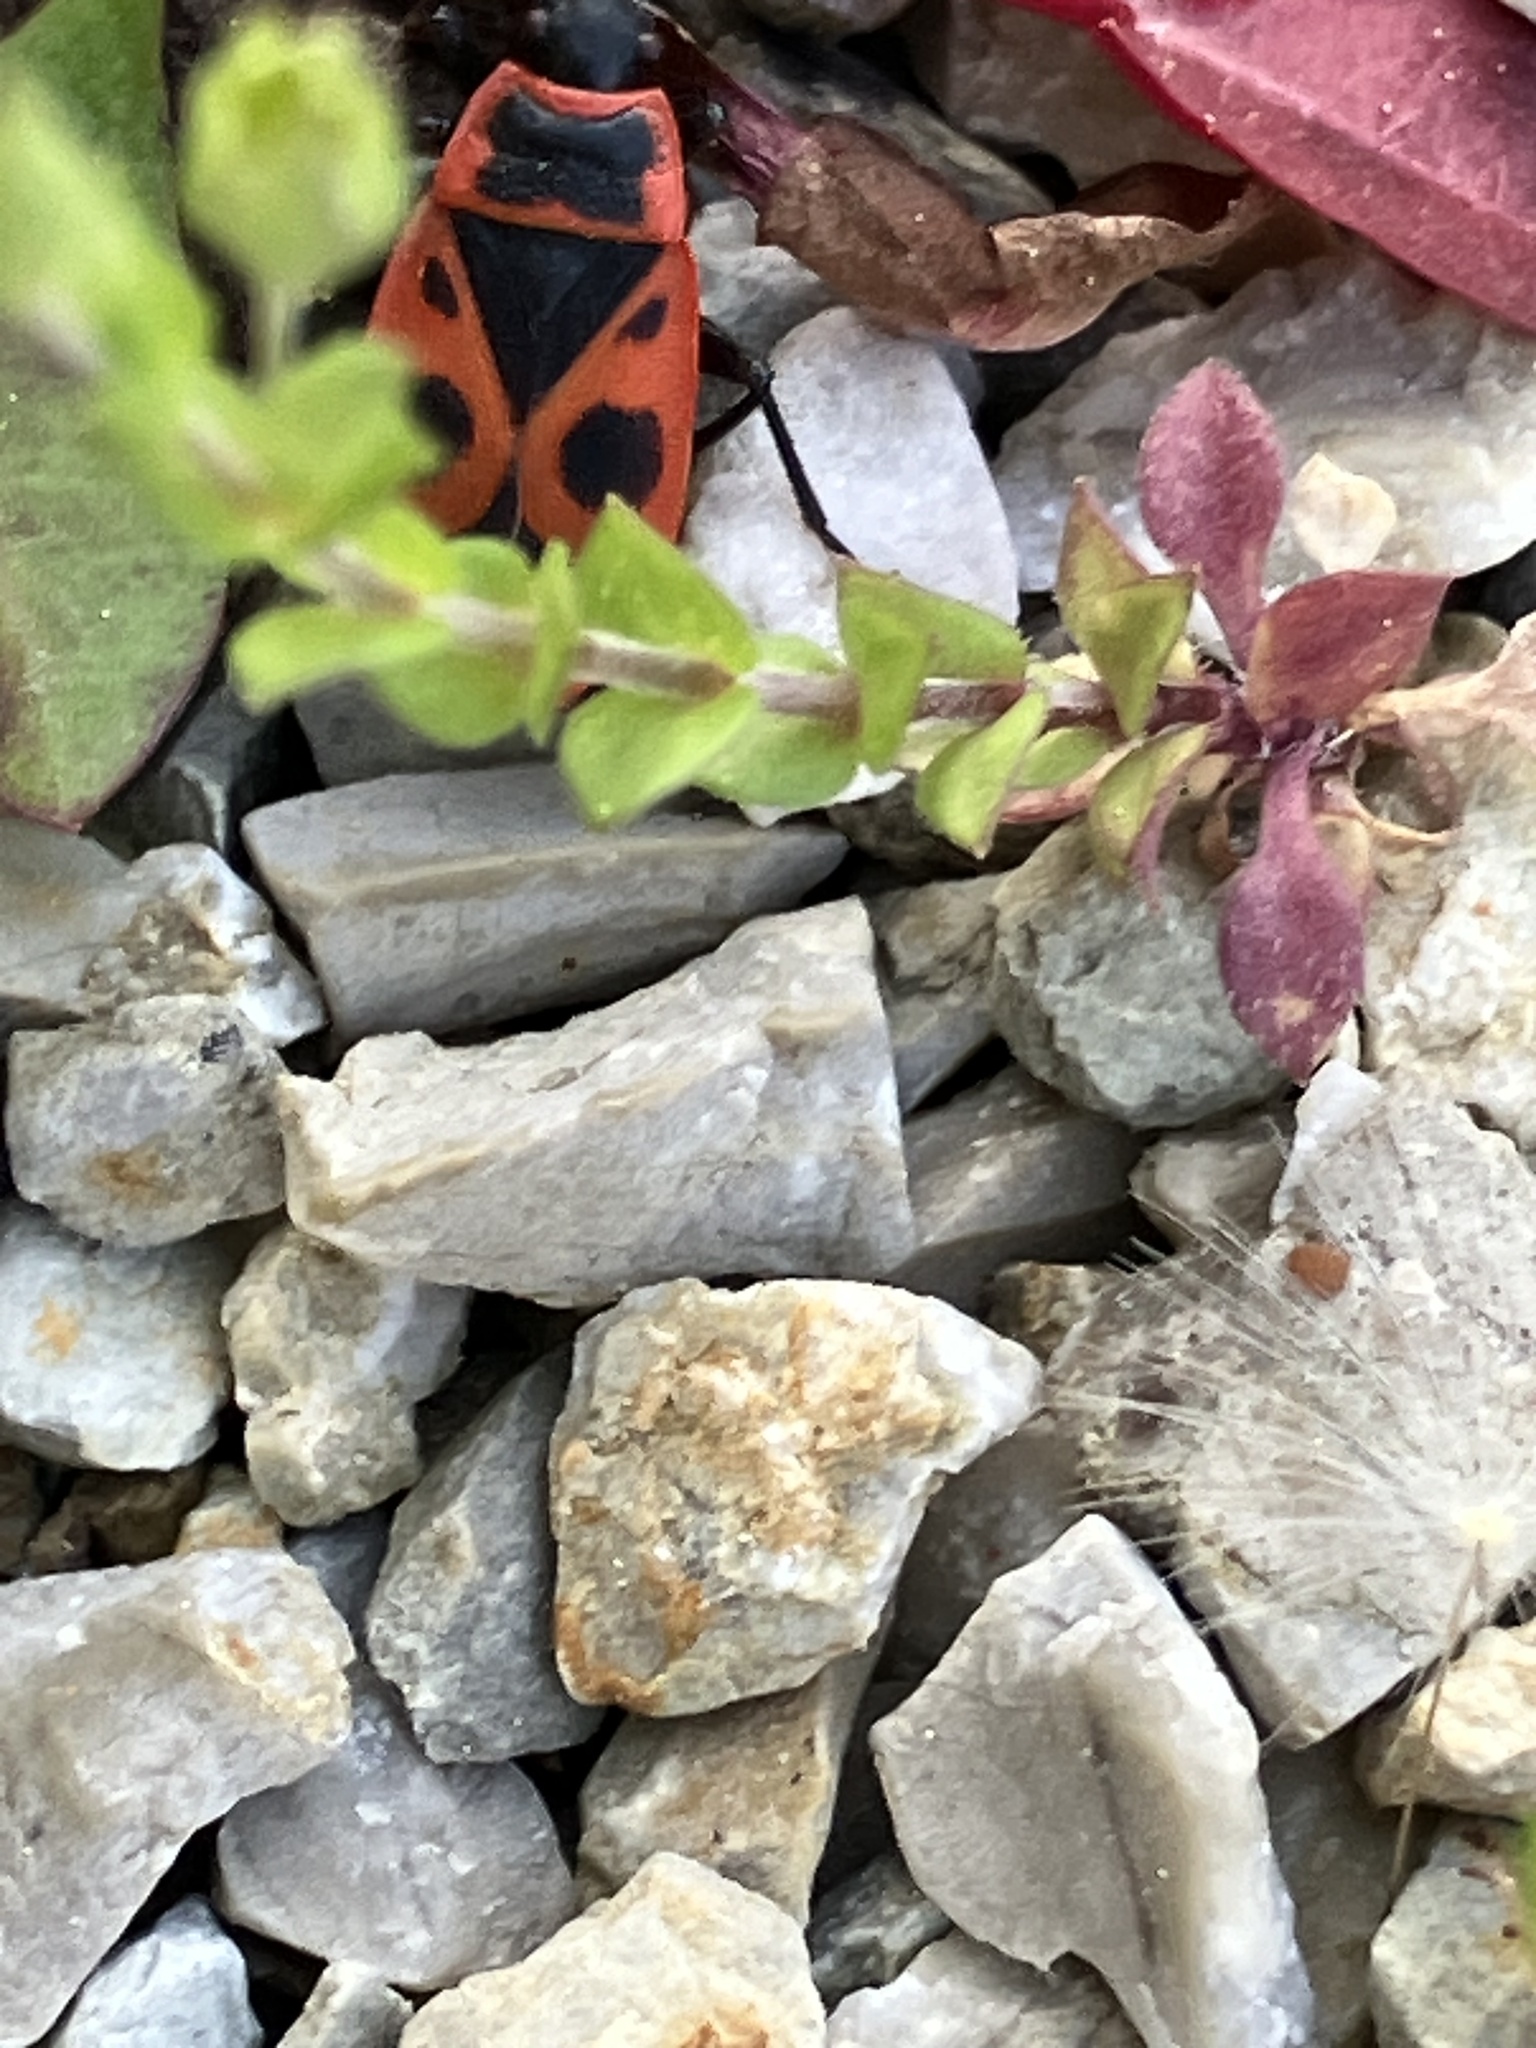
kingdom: Animalia
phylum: Arthropoda
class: Insecta
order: Hemiptera
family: Pyrrhocoridae
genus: Pyrrhocoris
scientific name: Pyrrhocoris apterus
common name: Firebug
